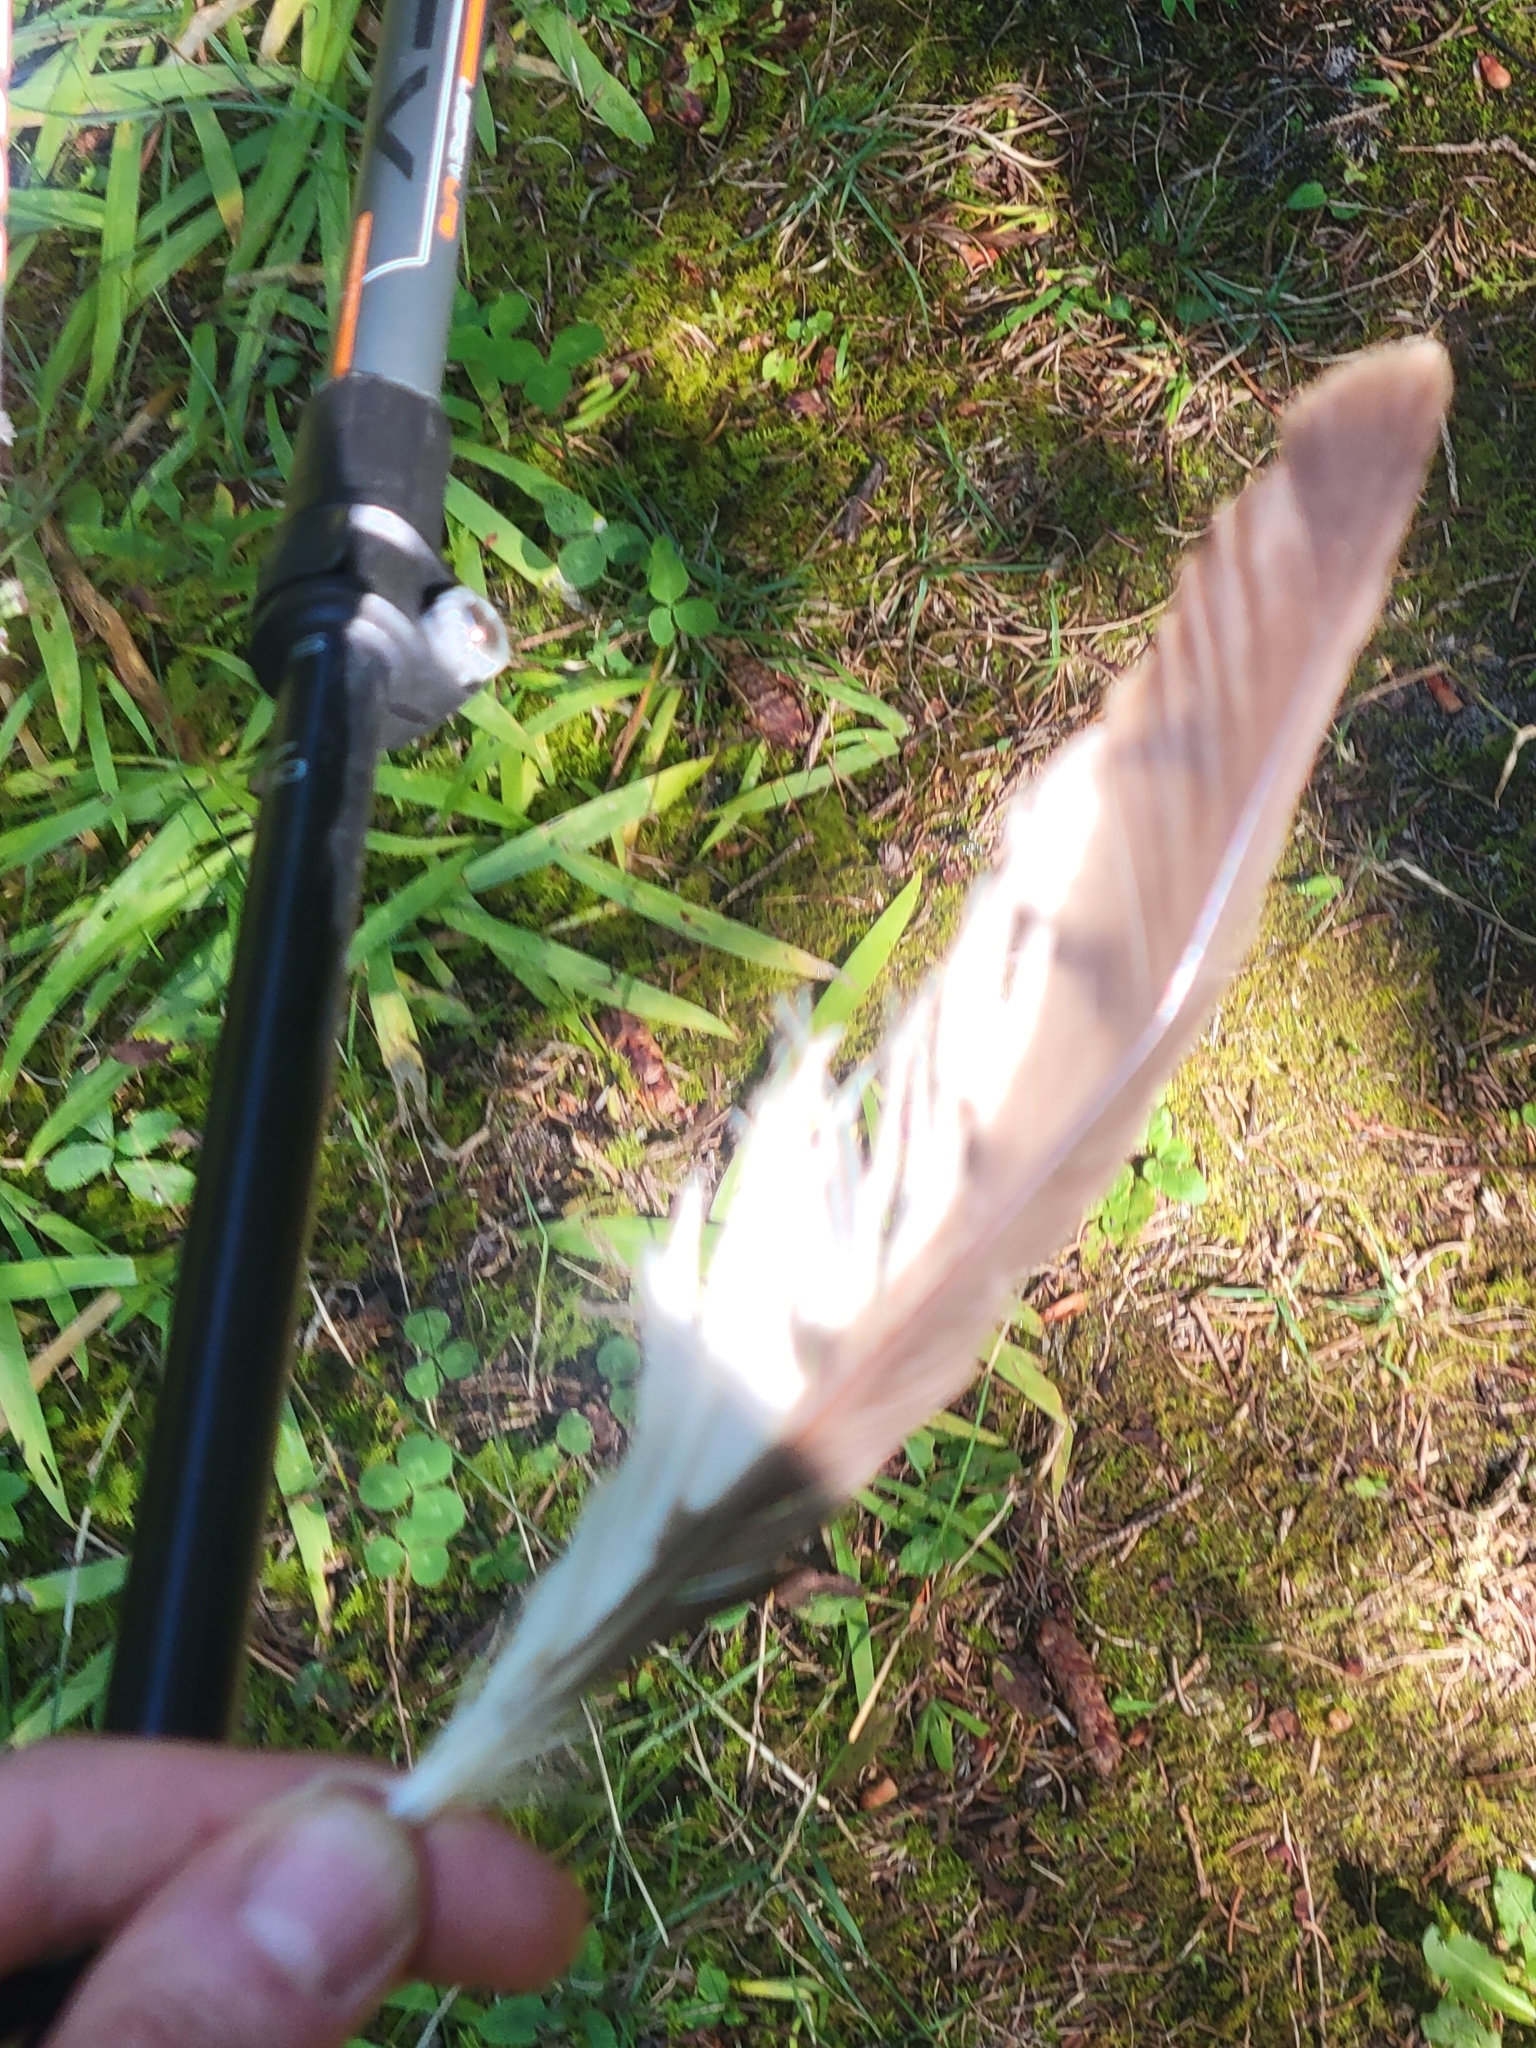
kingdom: Animalia
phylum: Chordata
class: Aves
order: Accipitriformes
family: Accipitridae
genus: Buteo
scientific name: Buteo platypterus
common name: Broad-winged hawk
